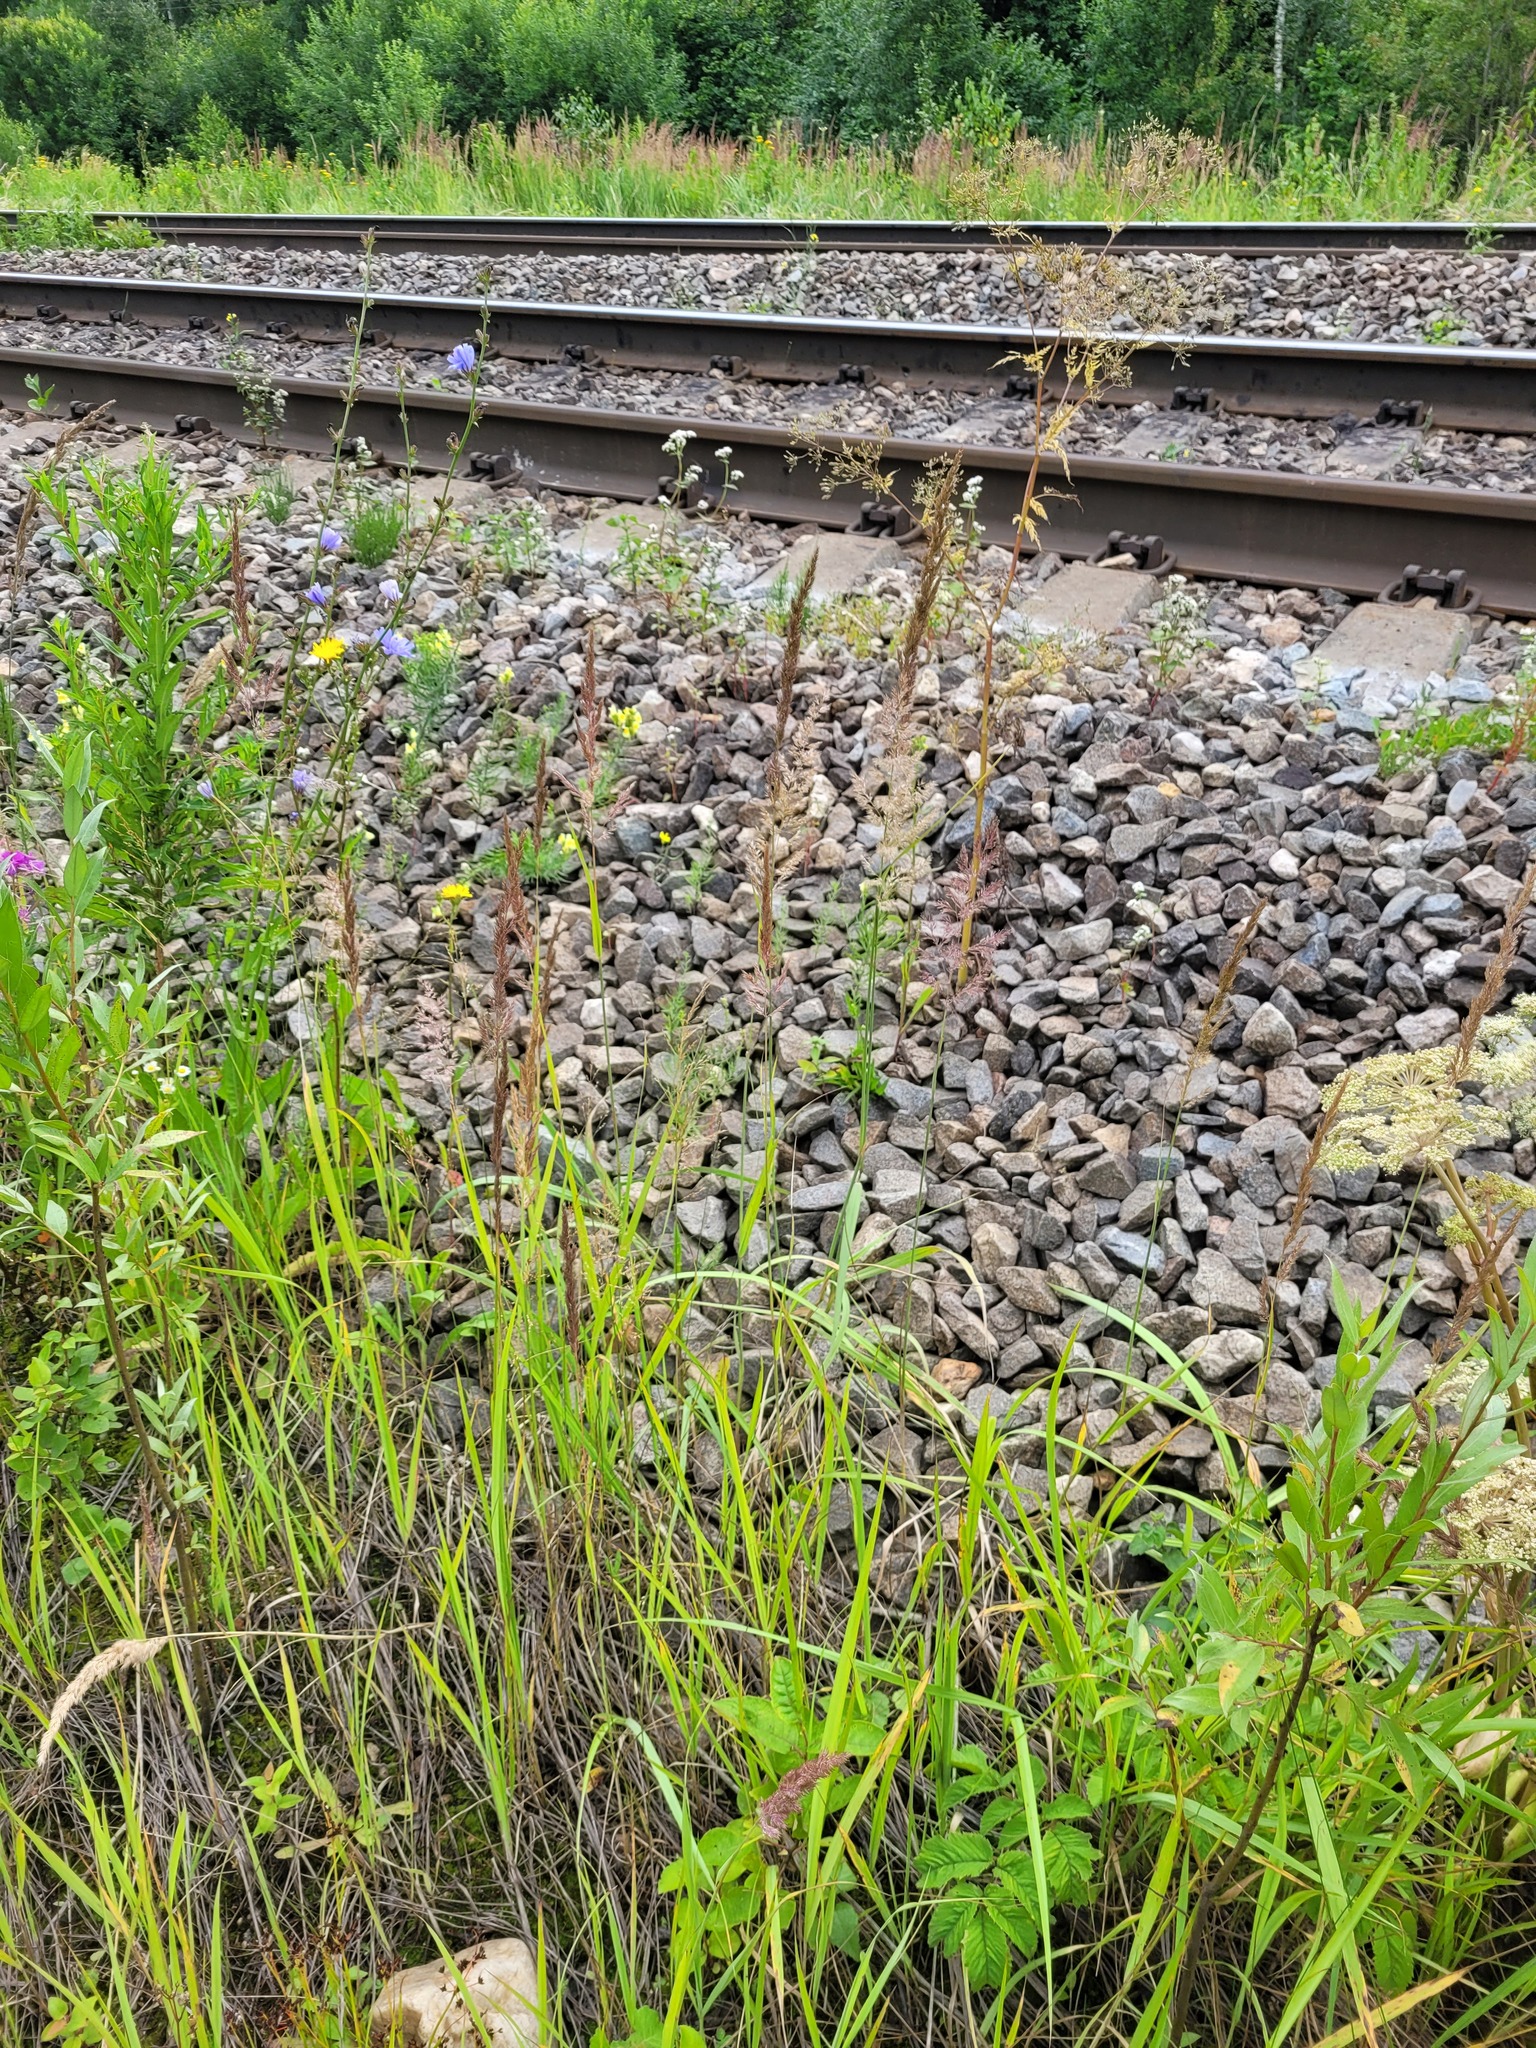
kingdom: Plantae
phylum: Tracheophyta
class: Liliopsida
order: Poales
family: Poaceae
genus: Calamagrostis
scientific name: Calamagrostis epigejos
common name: Wood small-reed
